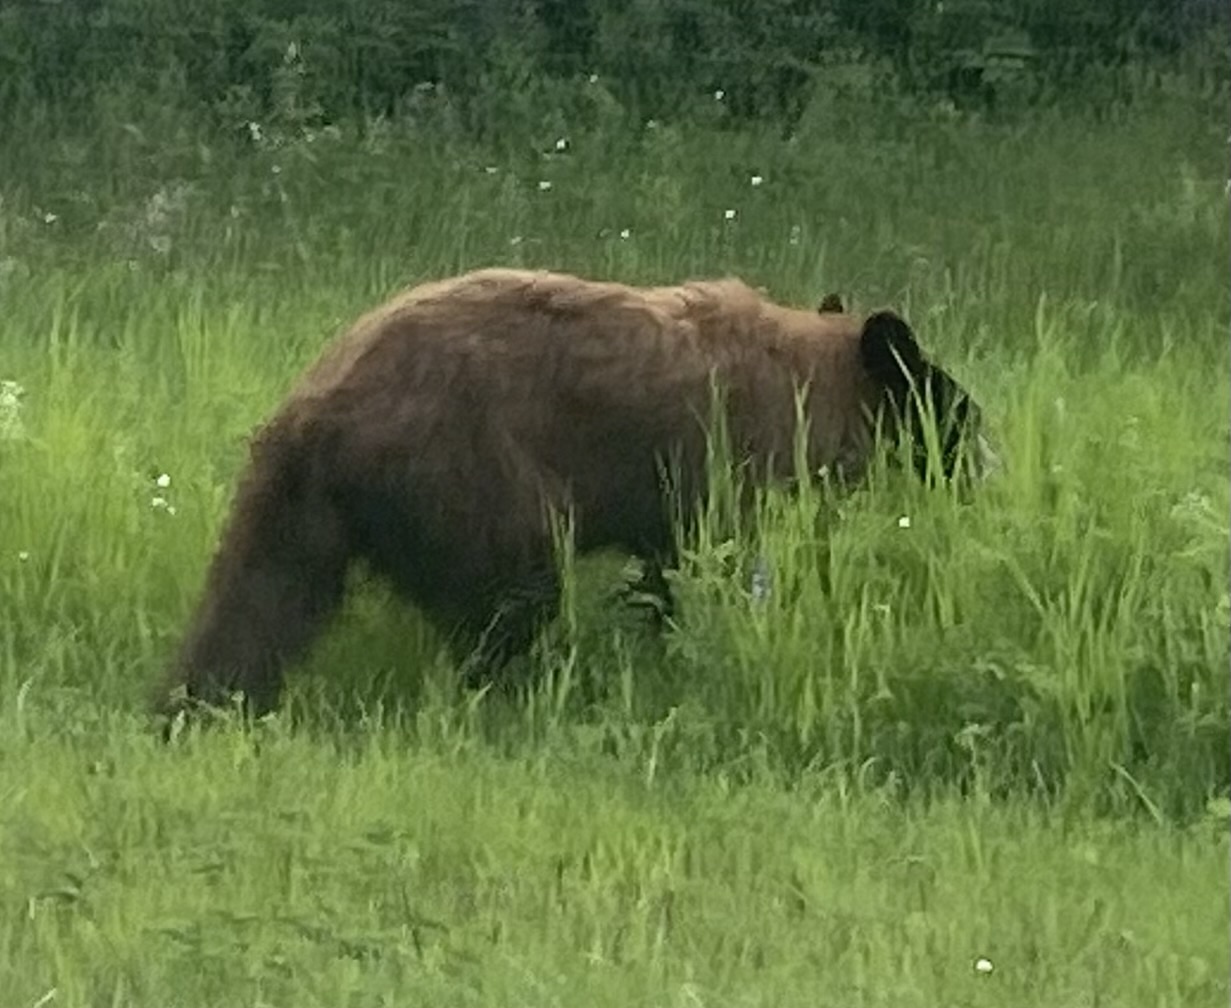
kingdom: Animalia
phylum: Chordata
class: Mammalia
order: Carnivora
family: Ursidae
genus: Ursus
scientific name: Ursus americanus
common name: American black bear
